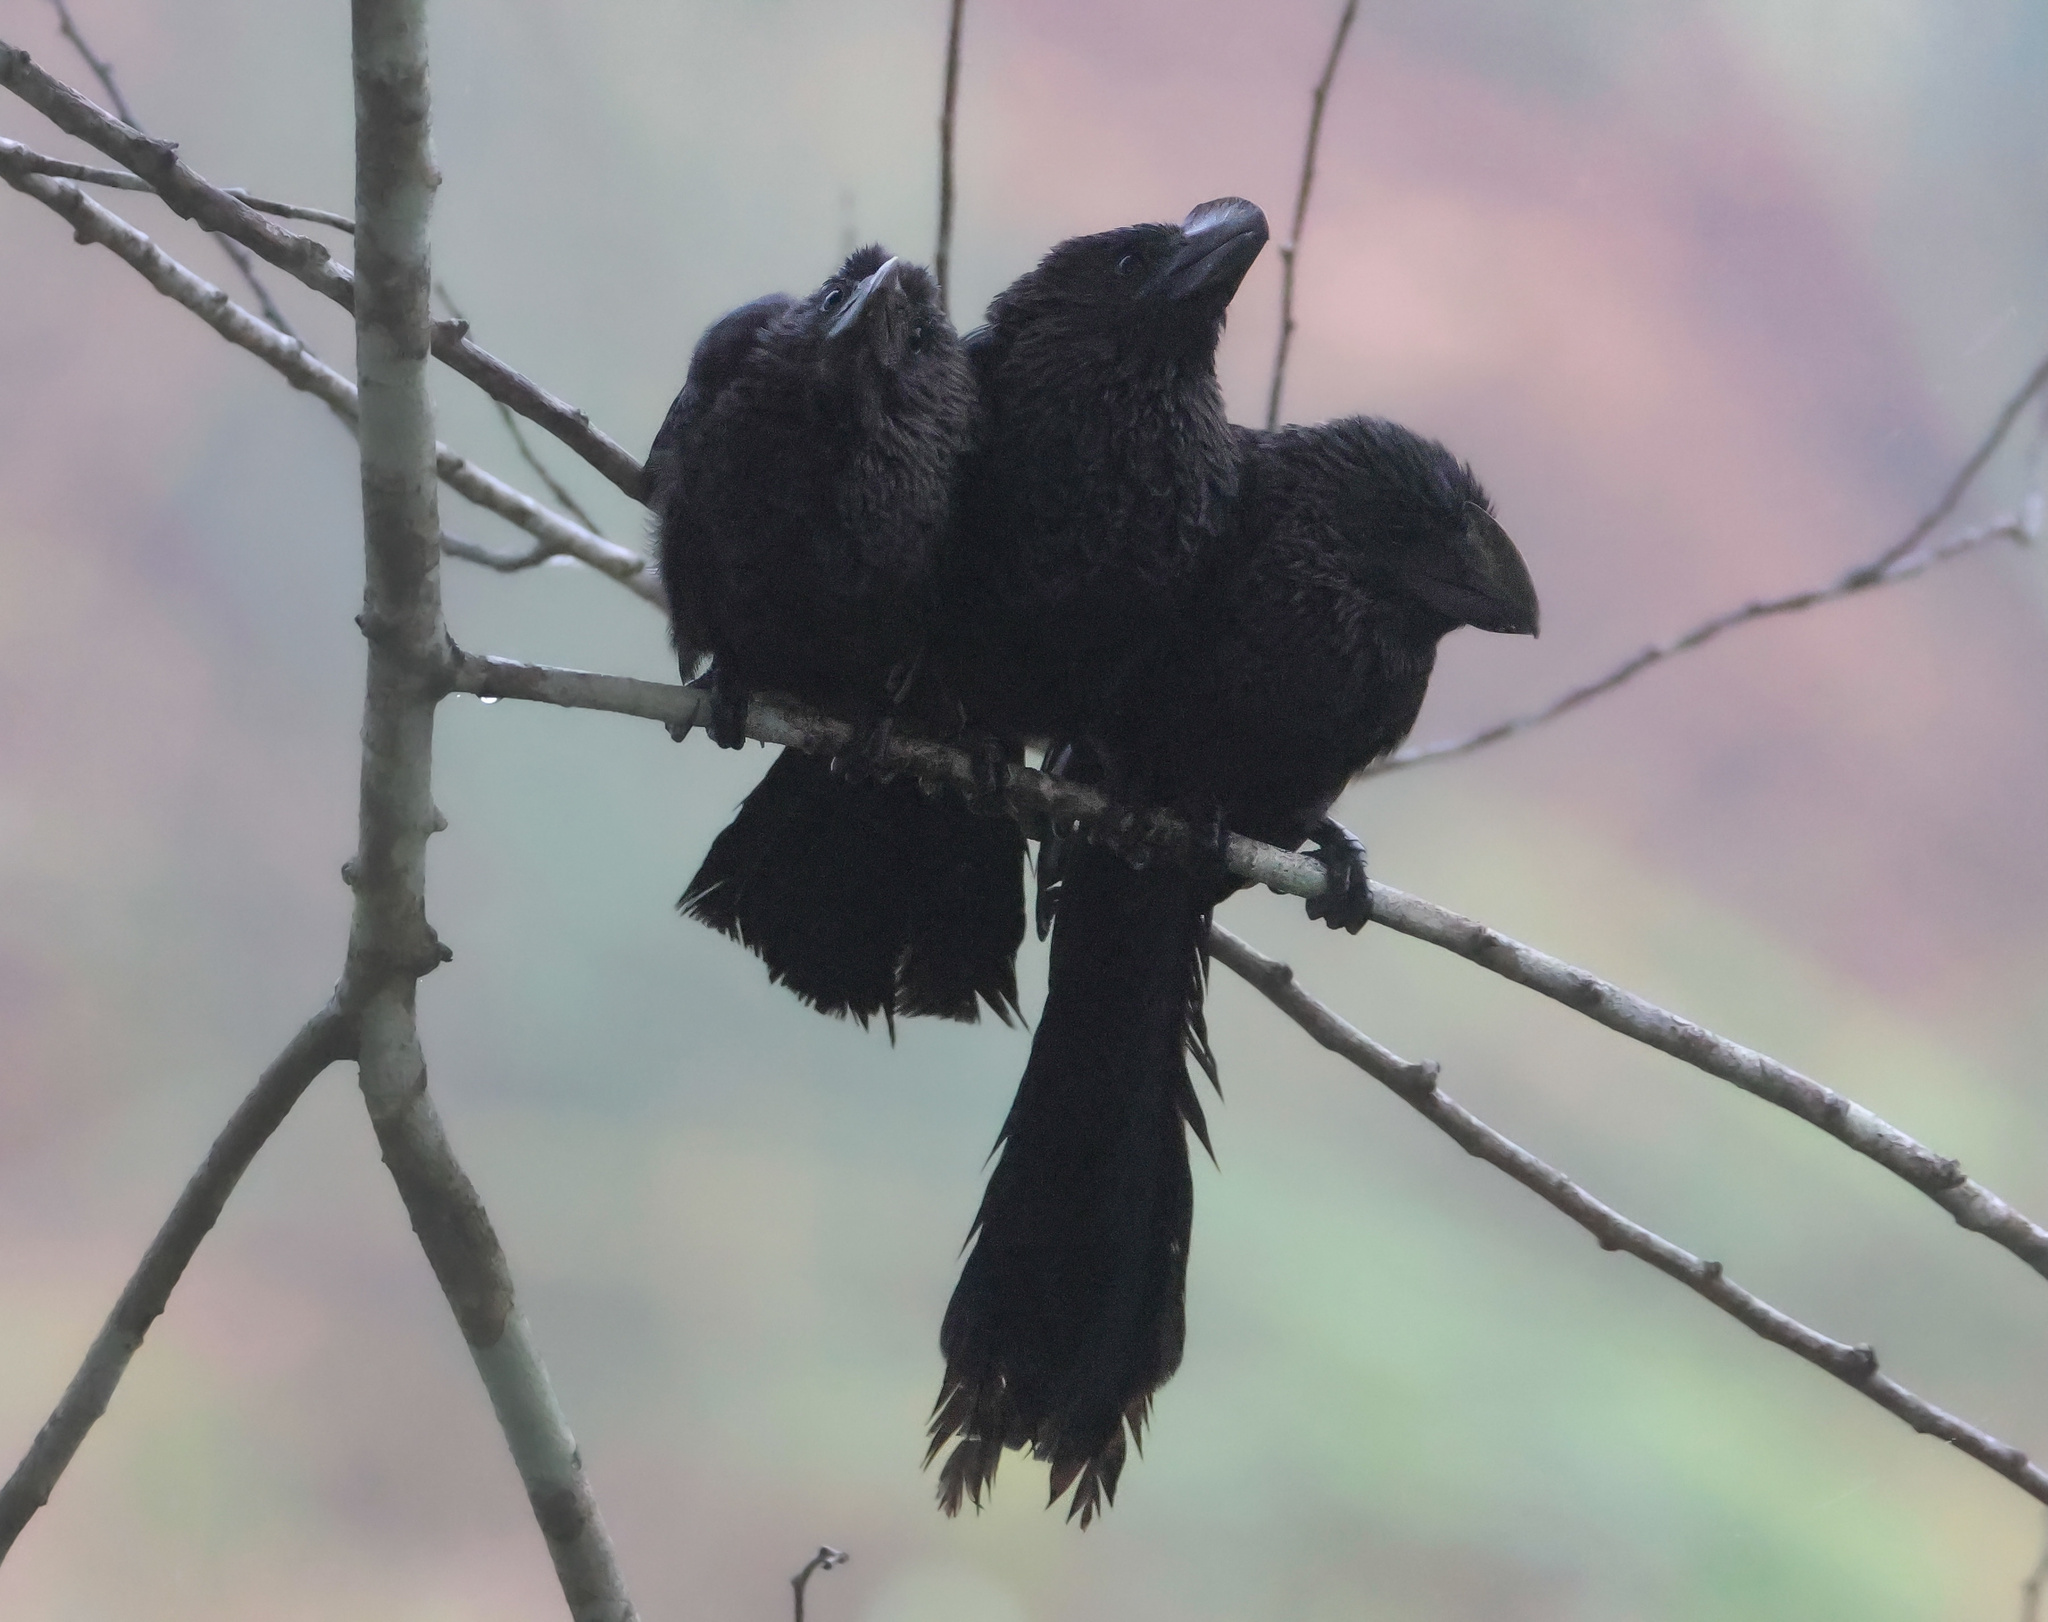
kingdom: Animalia
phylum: Chordata
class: Aves
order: Cuculiformes
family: Cuculidae
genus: Crotophaga
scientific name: Crotophaga ani
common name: Smooth-billed ani
